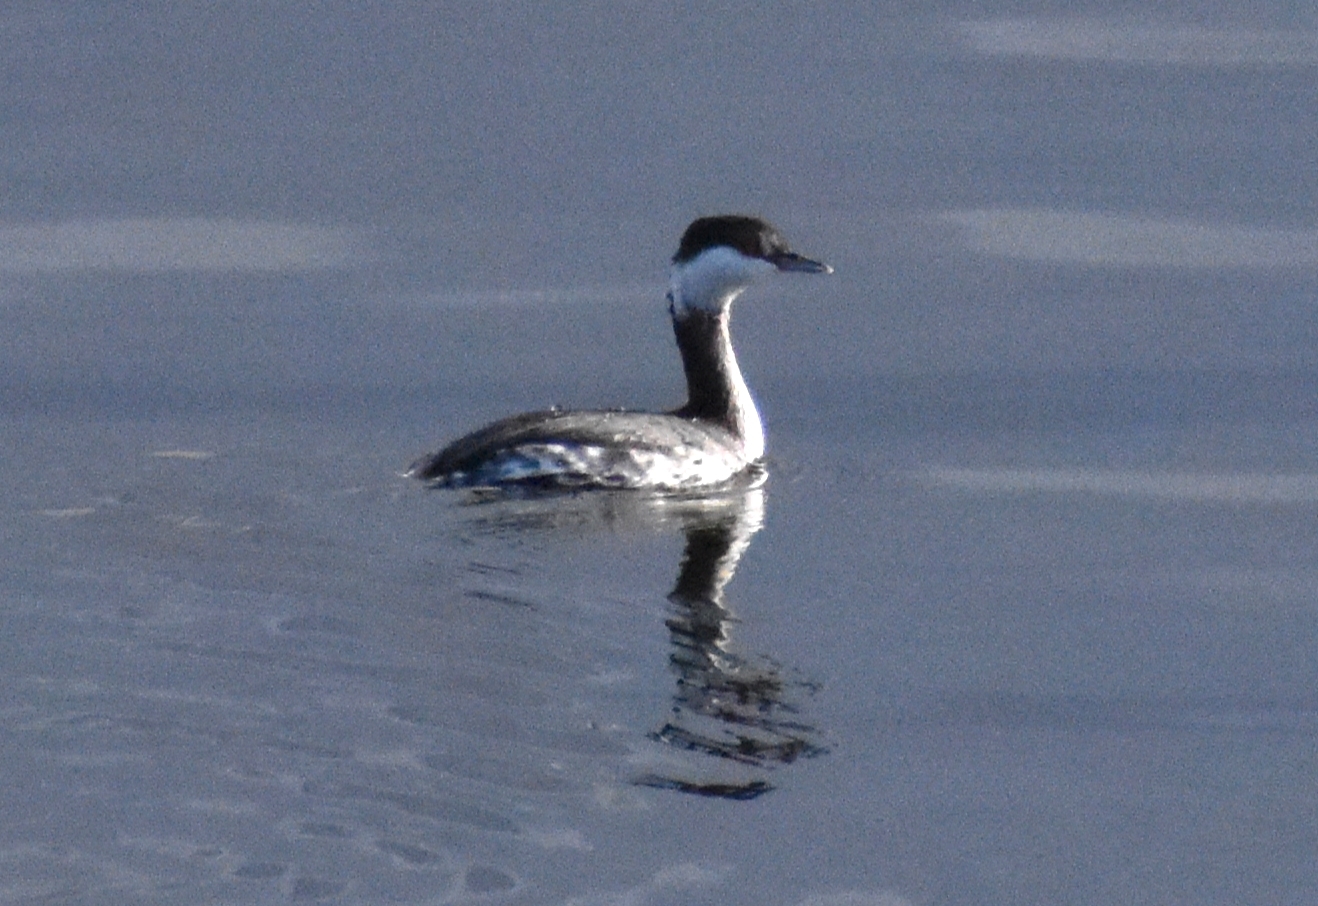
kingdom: Animalia
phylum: Chordata
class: Aves
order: Podicipediformes
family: Podicipedidae
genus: Podiceps
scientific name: Podiceps auritus
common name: Horned grebe
